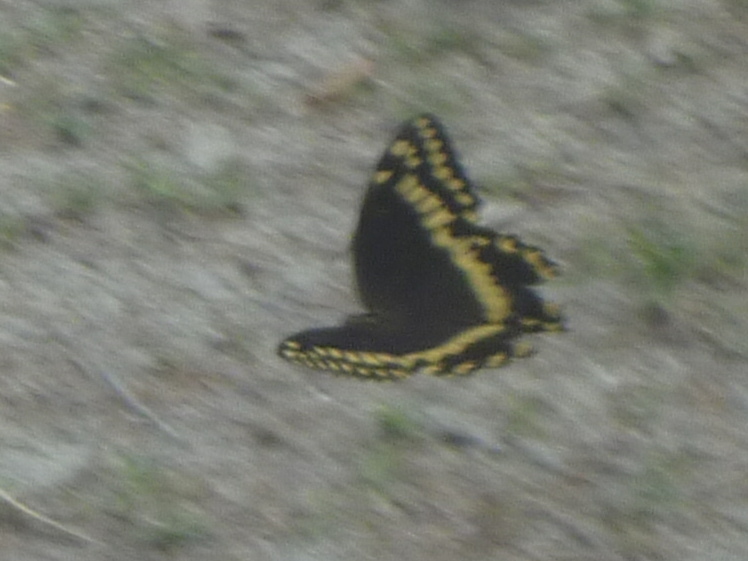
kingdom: Animalia
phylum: Arthropoda
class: Insecta
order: Lepidoptera
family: Papilionidae
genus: Papilio
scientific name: Papilio palamedes
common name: Palamedes swallowtail
